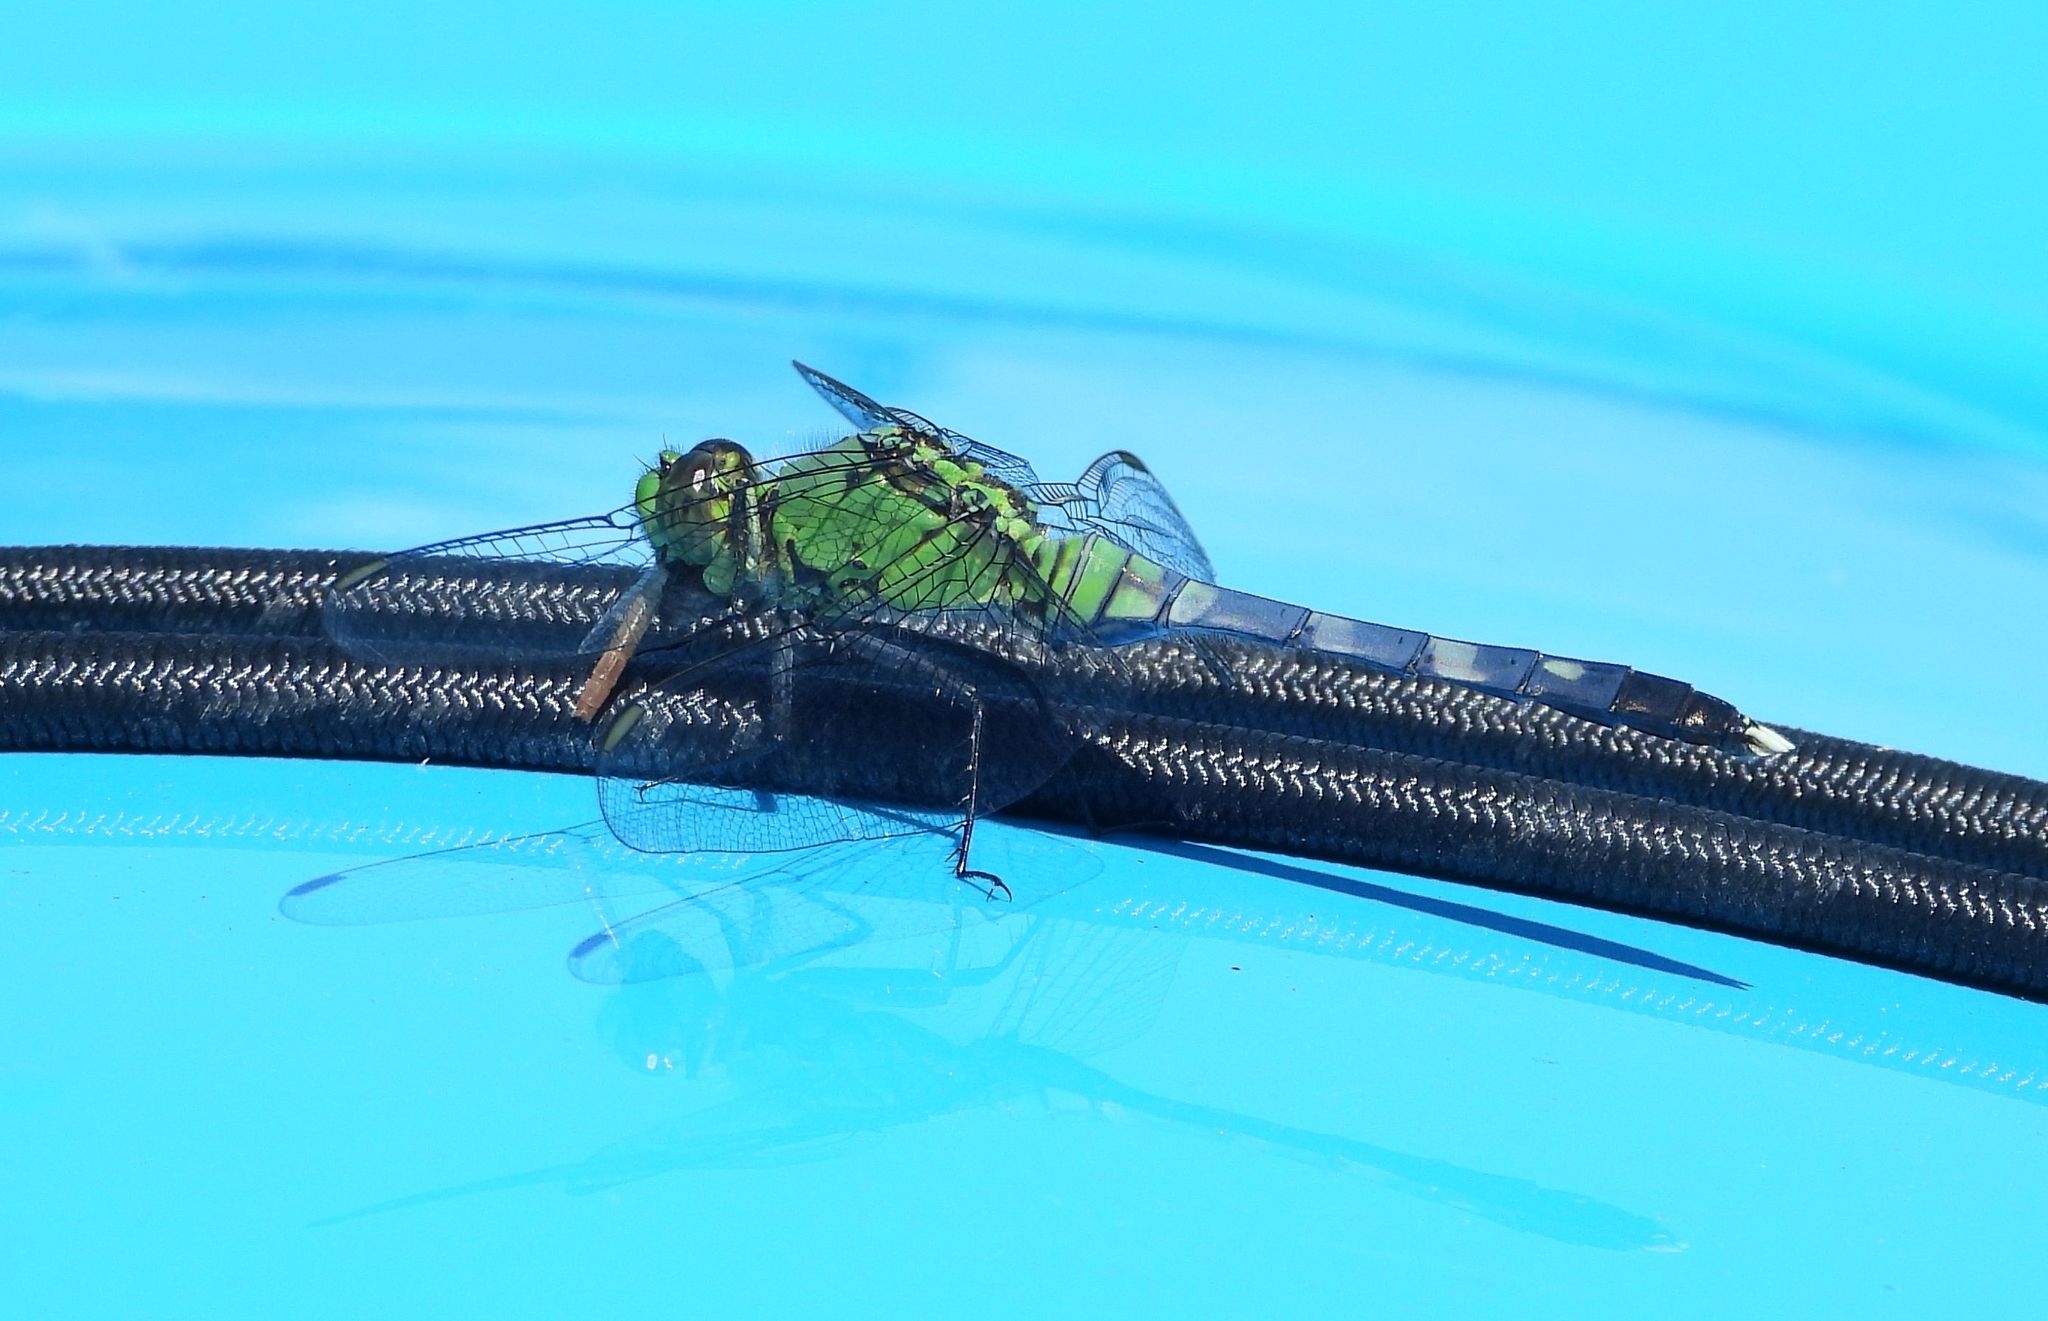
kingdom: Animalia
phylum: Arthropoda
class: Insecta
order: Odonata
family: Libellulidae
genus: Erythemis
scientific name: Erythemis simplicicollis
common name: Eastern pondhawk
